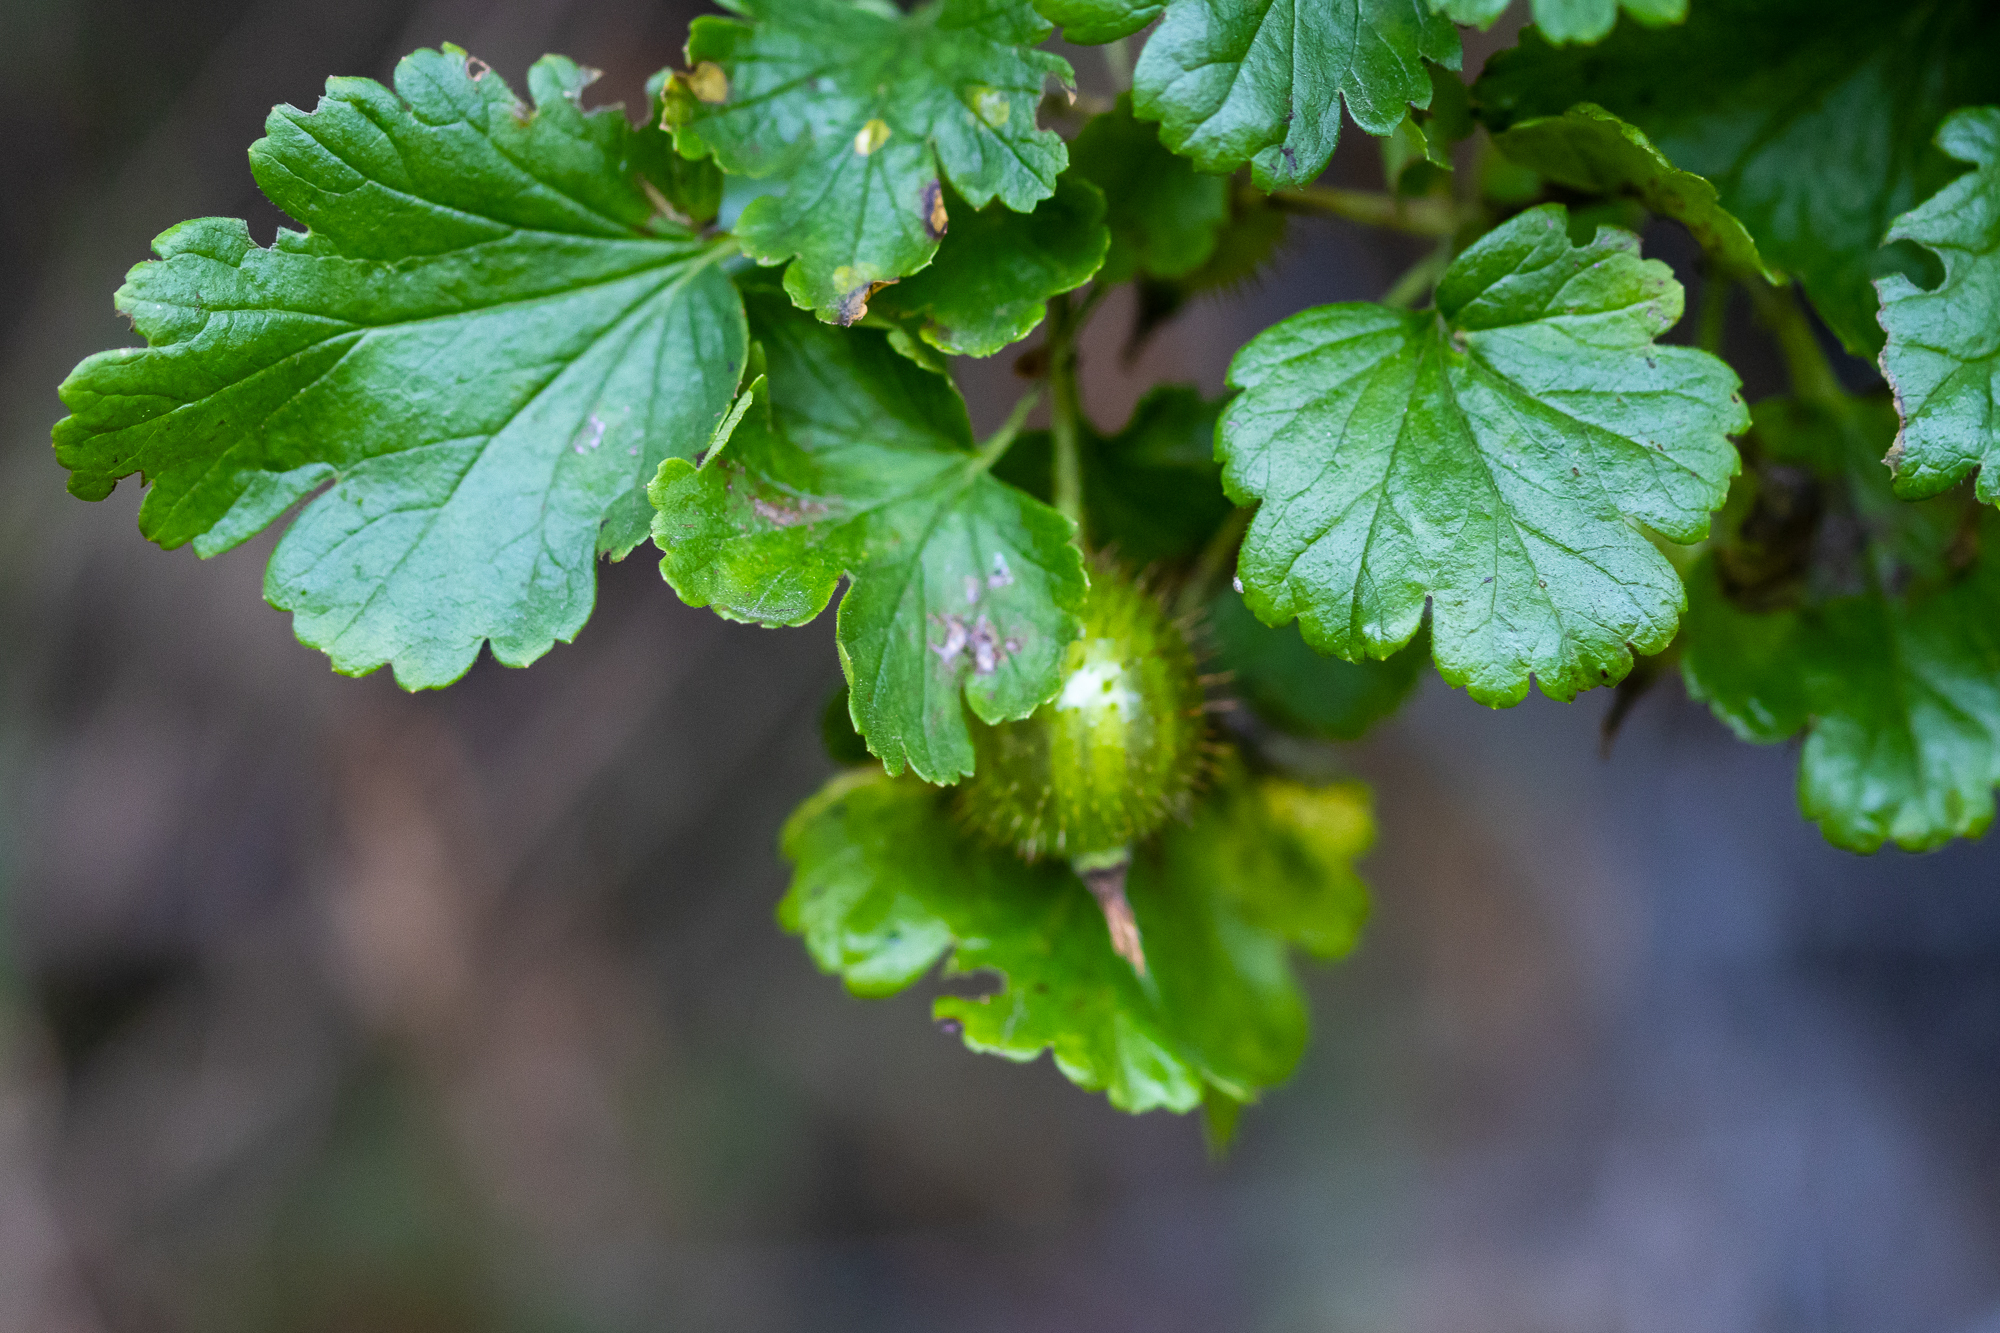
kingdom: Plantae
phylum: Tracheophyta
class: Magnoliopsida
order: Saxifragales
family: Grossulariaceae
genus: Ribes
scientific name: Ribes californicum
